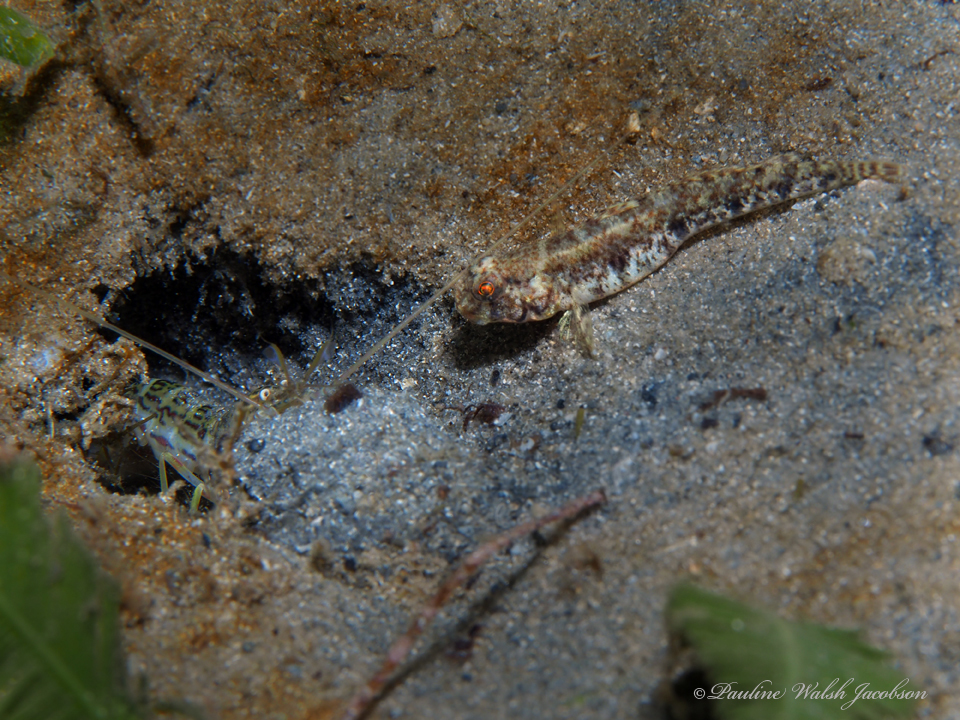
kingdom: Animalia
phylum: Chordata
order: Perciformes
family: Gobiidae
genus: Ctenogobius
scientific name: Ctenogobius stigmaturus
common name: Spottail goby
